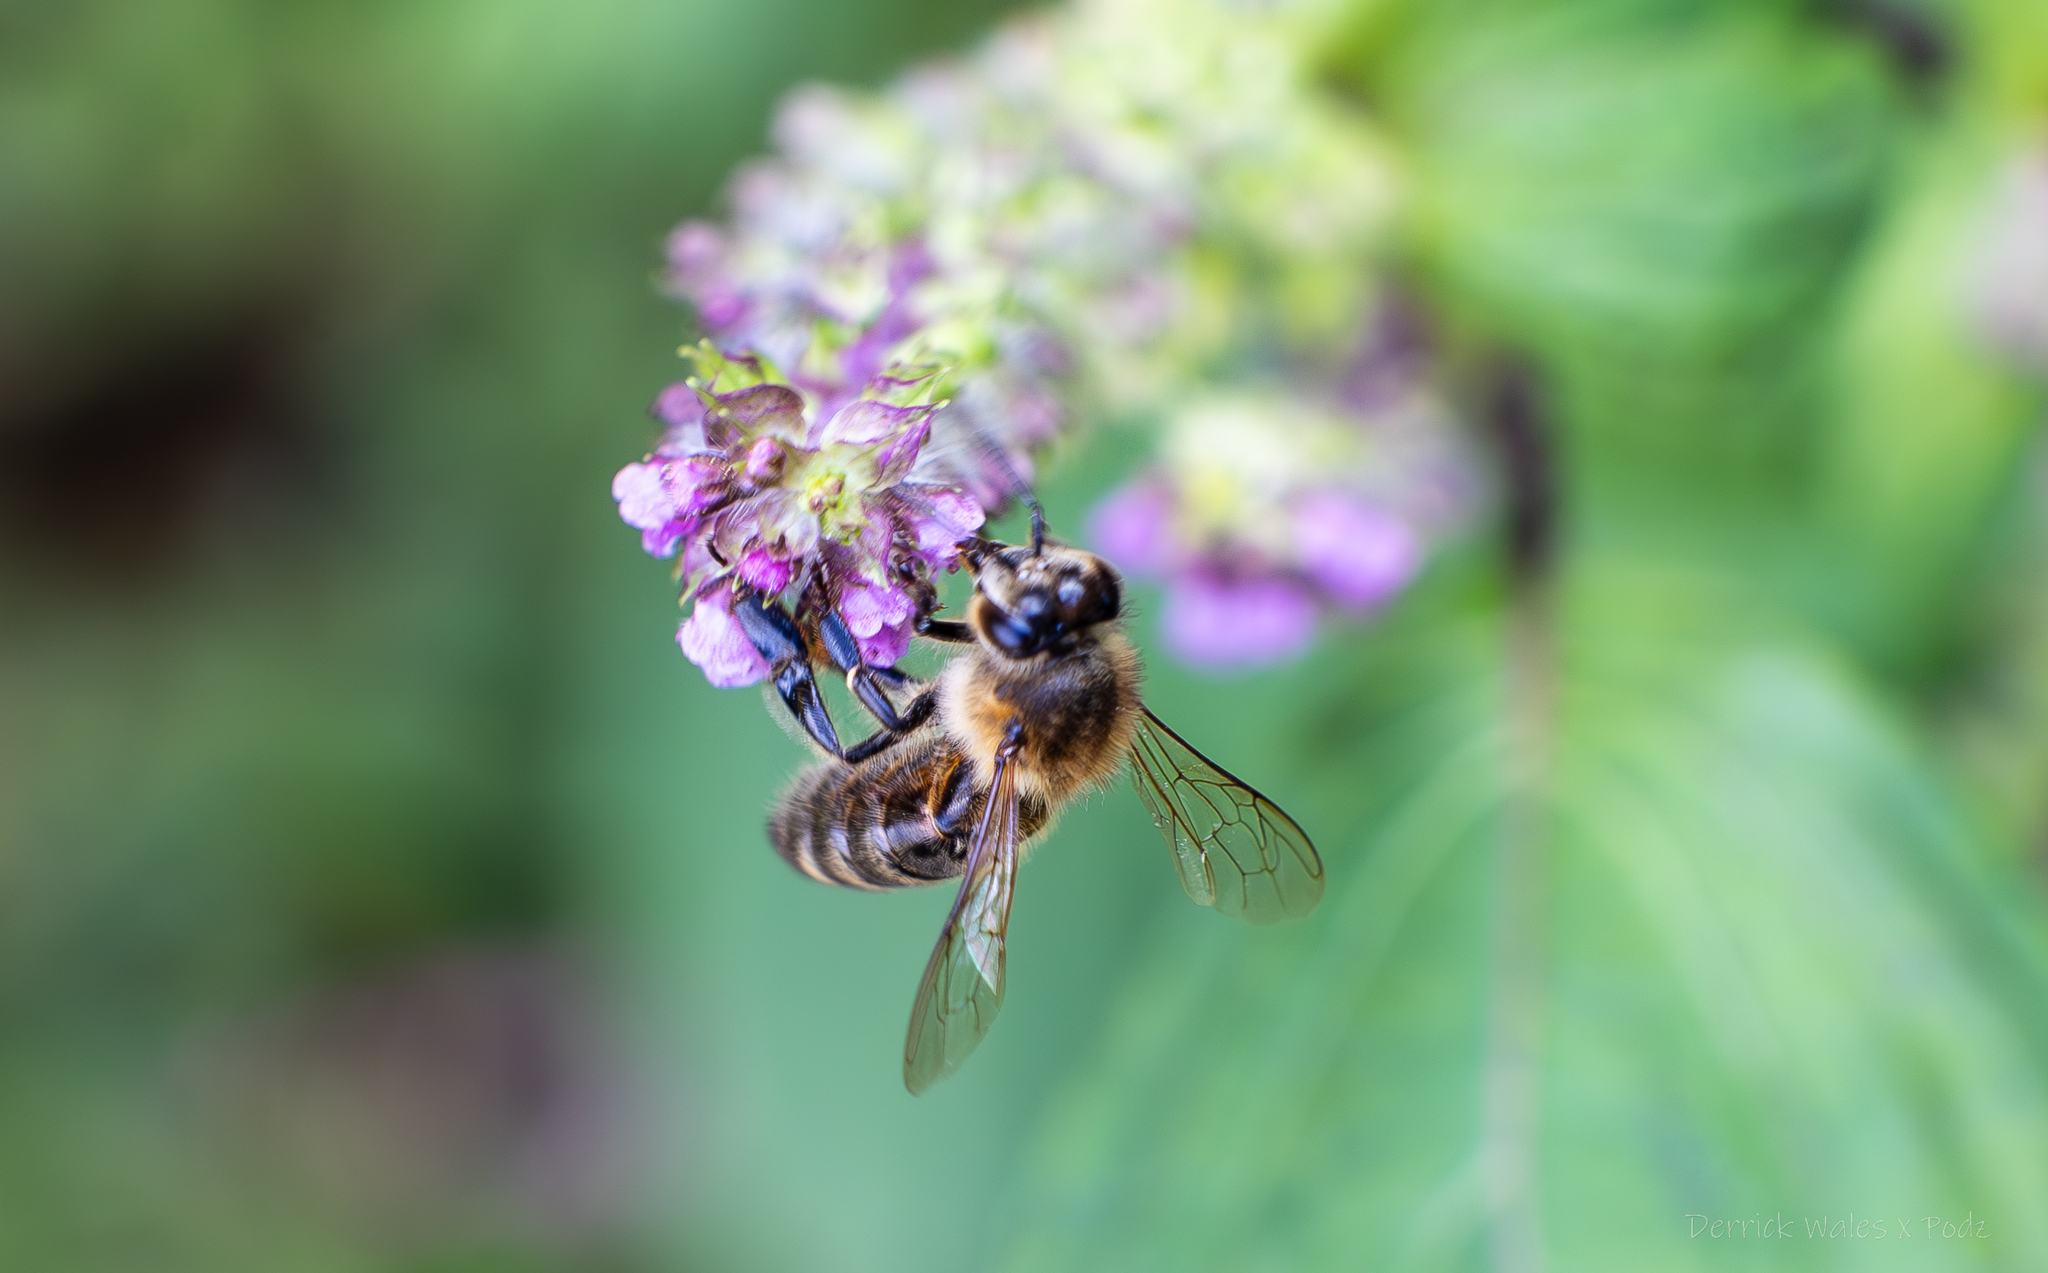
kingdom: Animalia
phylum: Arthropoda
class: Insecta
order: Hymenoptera
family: Apidae
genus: Apis
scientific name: Apis mellifera
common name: Honey bee
